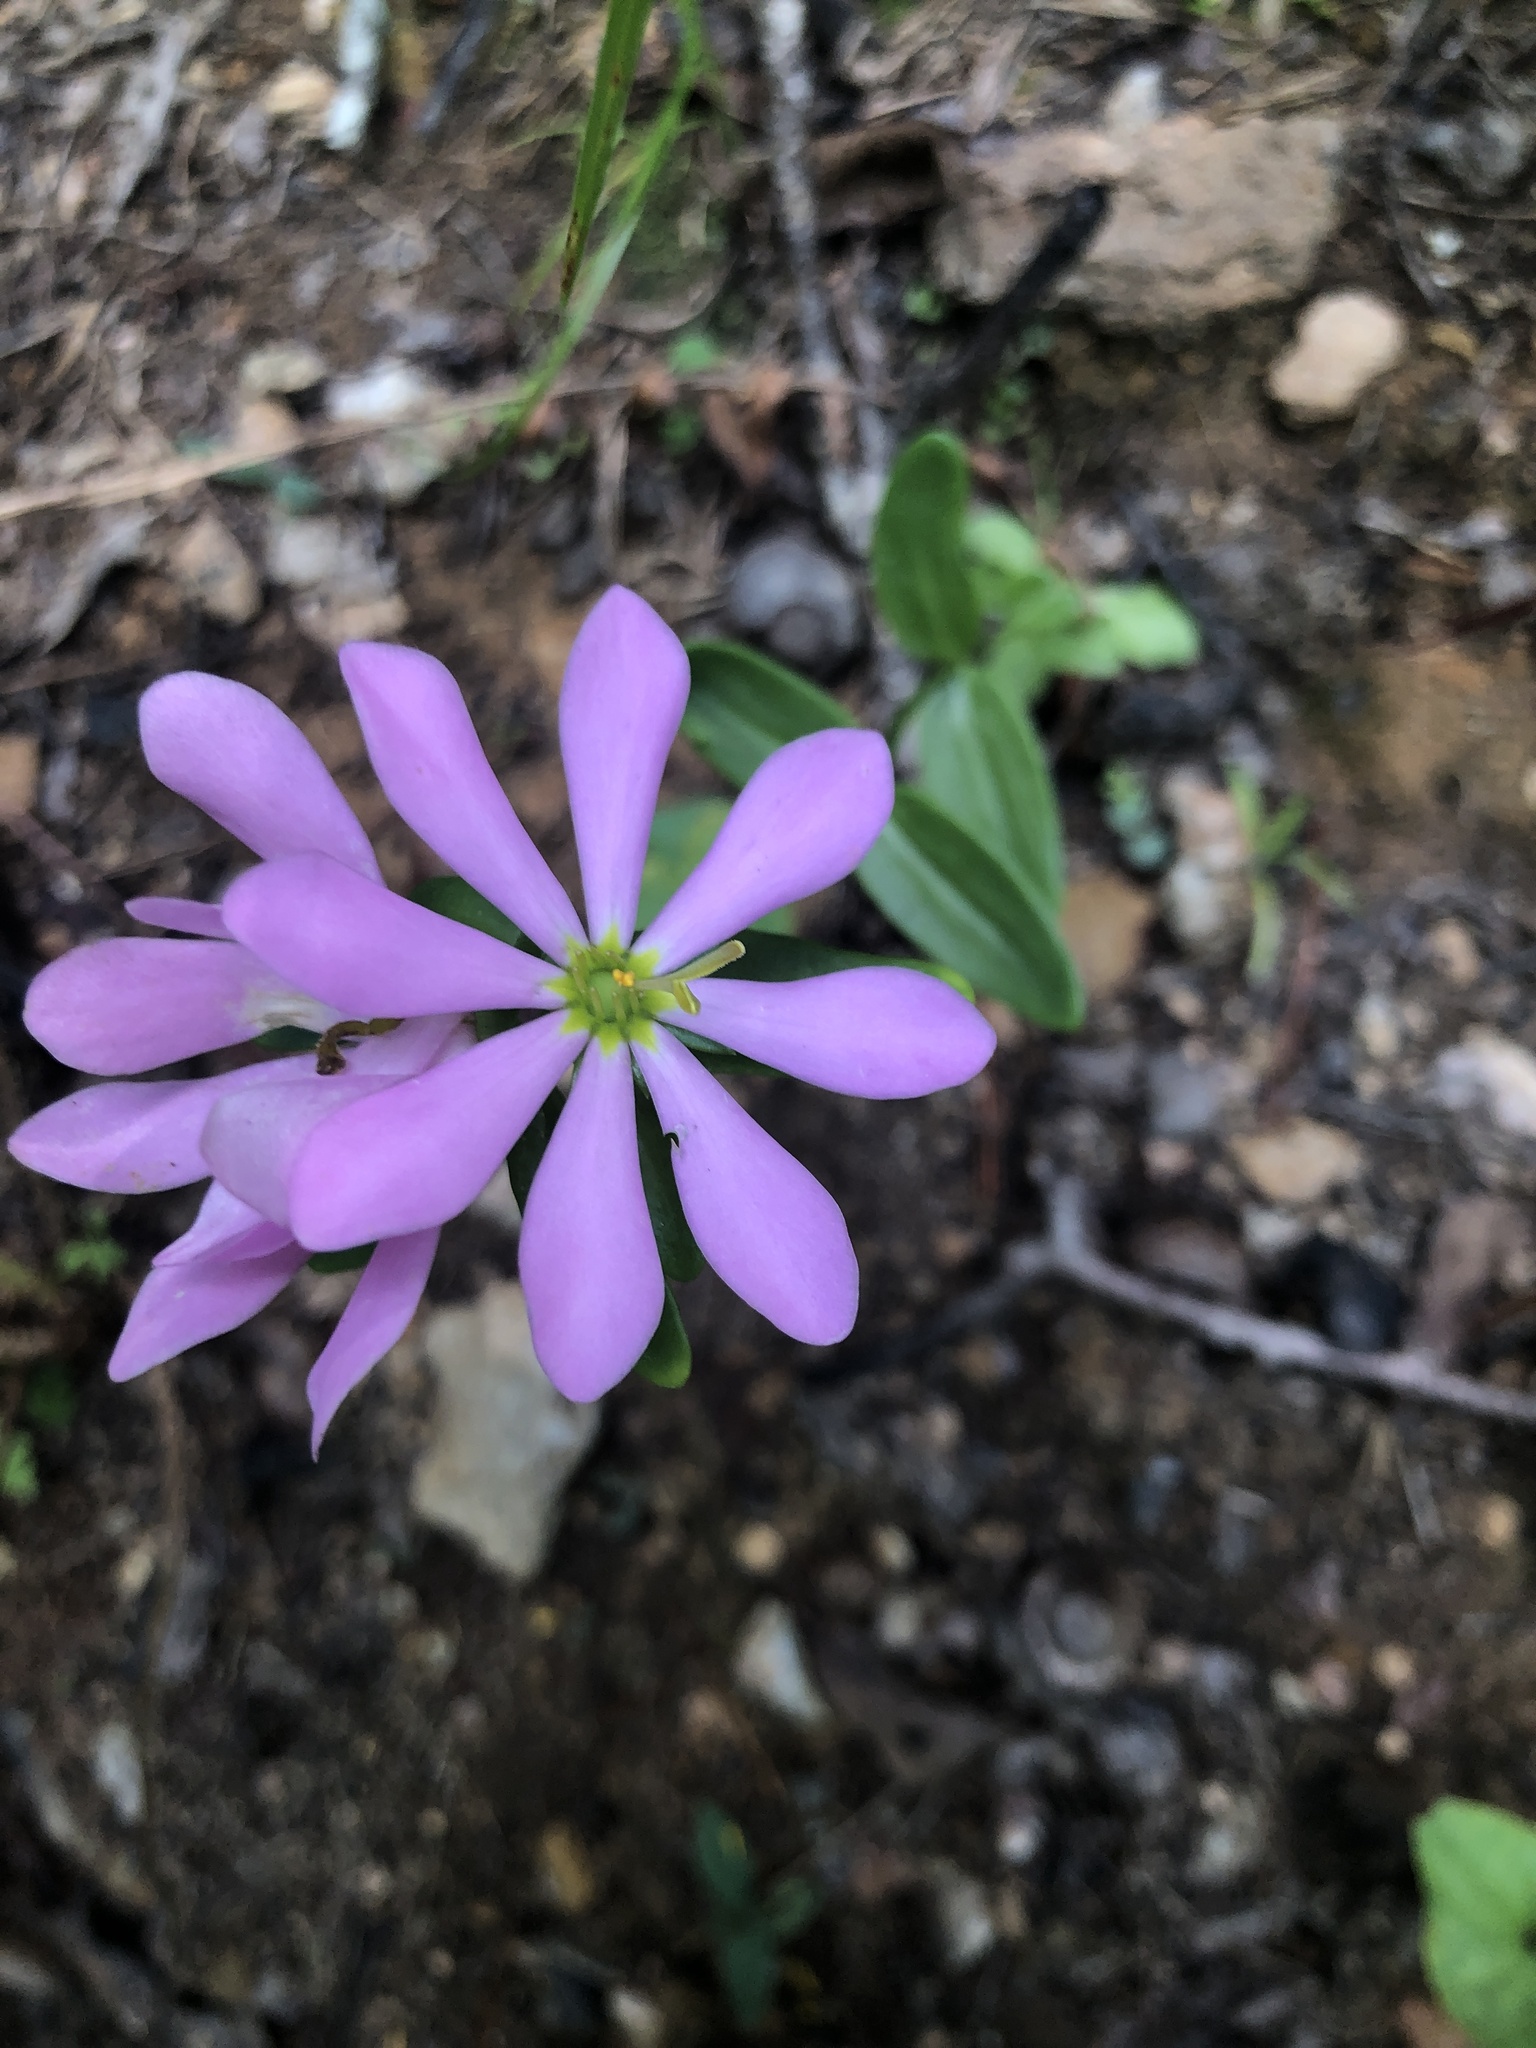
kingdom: Plantae
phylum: Tracheophyta
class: Magnoliopsida
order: Gentianales
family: Gentianaceae
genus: Sabatia
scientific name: Sabatia capitata
